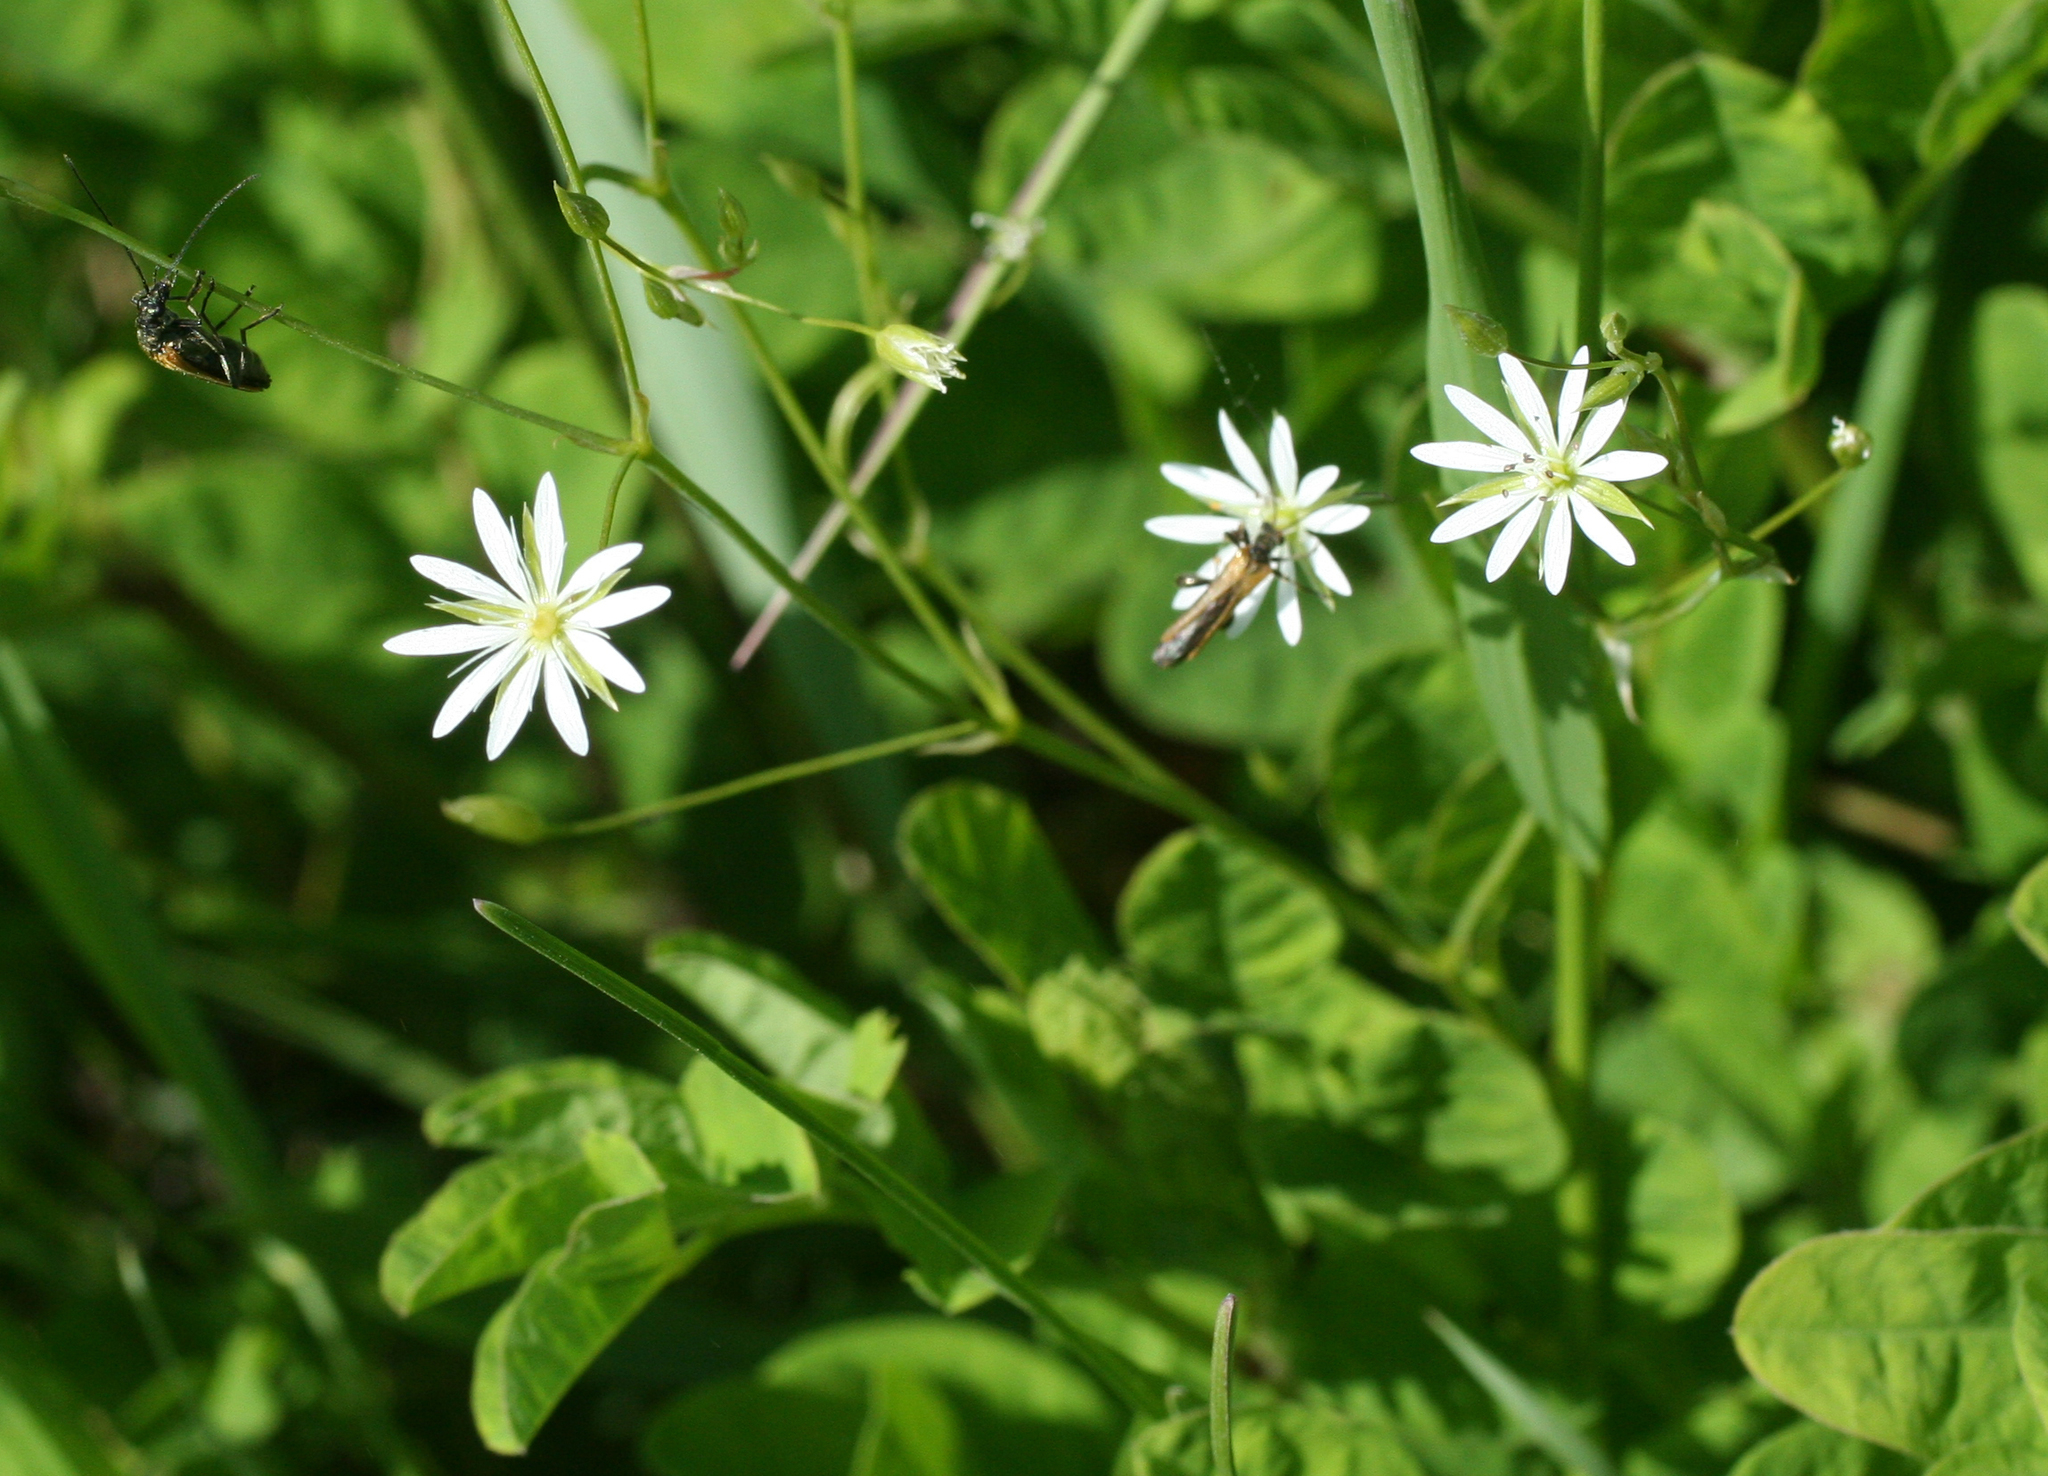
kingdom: Plantae
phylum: Tracheophyta
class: Magnoliopsida
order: Caryophyllales
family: Caryophyllaceae
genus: Stellaria
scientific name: Stellaria graminea
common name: Grass-like starwort
